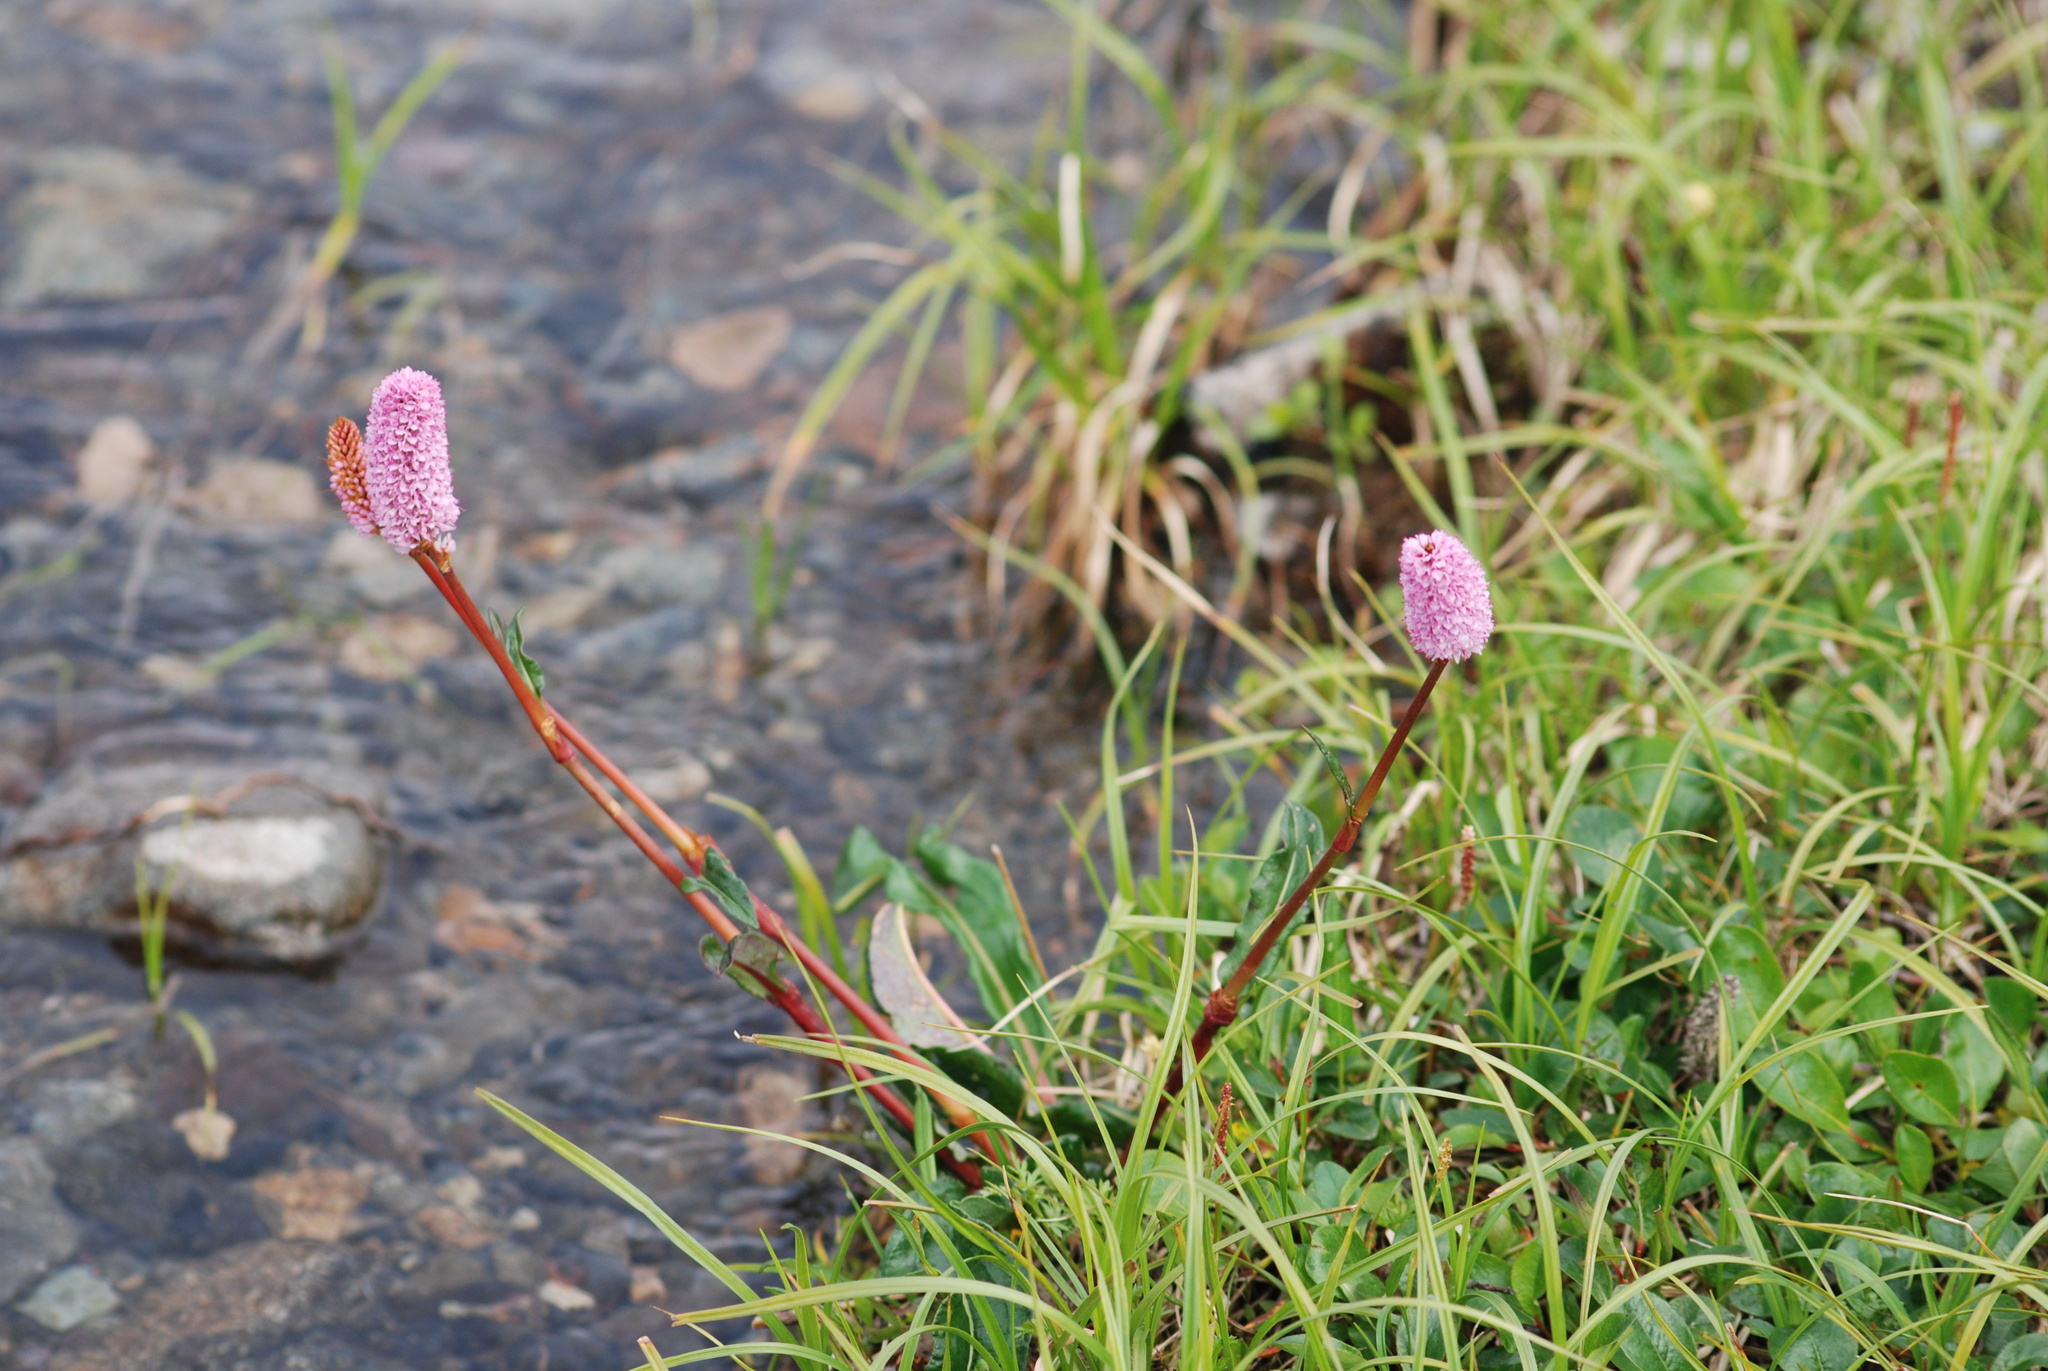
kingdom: Plantae
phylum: Tracheophyta
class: Magnoliopsida
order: Caryophyllales
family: Polygonaceae
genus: Bistorta
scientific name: Bistorta plumosa
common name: Meadow bistort
